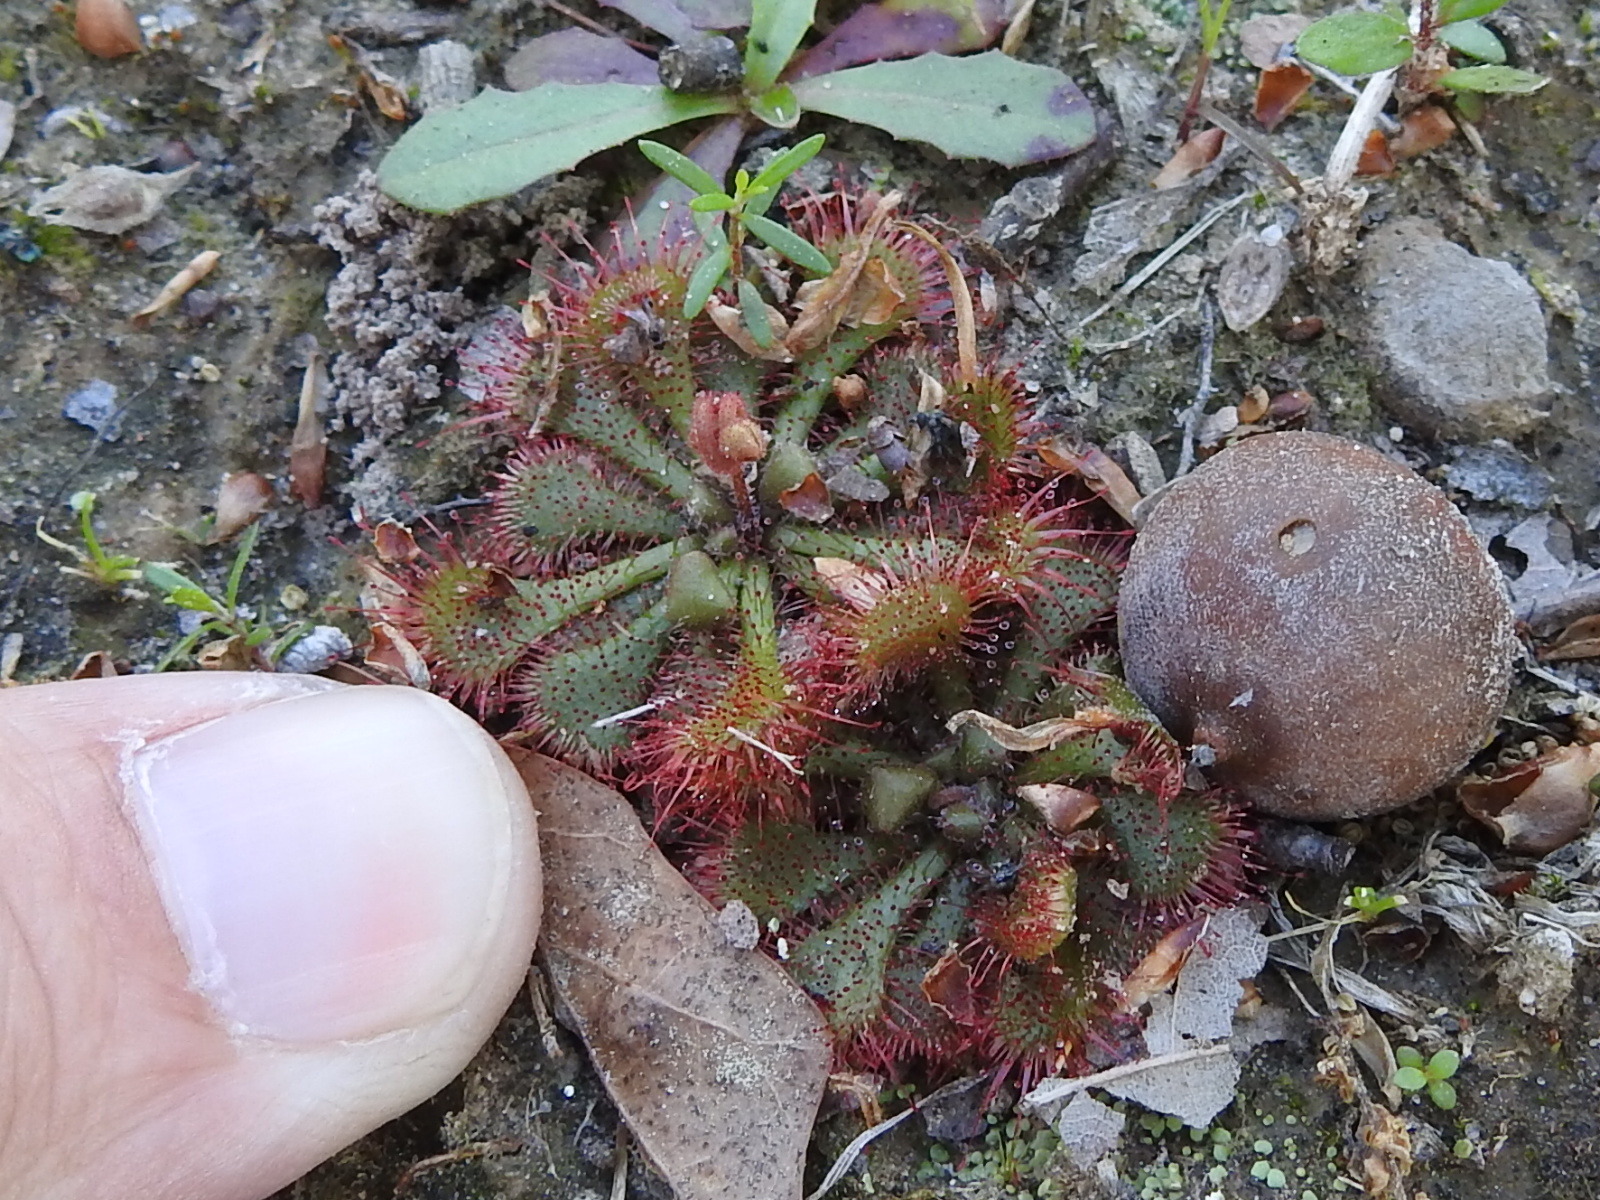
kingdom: Plantae
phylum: Tracheophyta
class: Magnoliopsida
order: Caryophyllales
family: Droseraceae
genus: Drosera
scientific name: Drosera brevifolia
